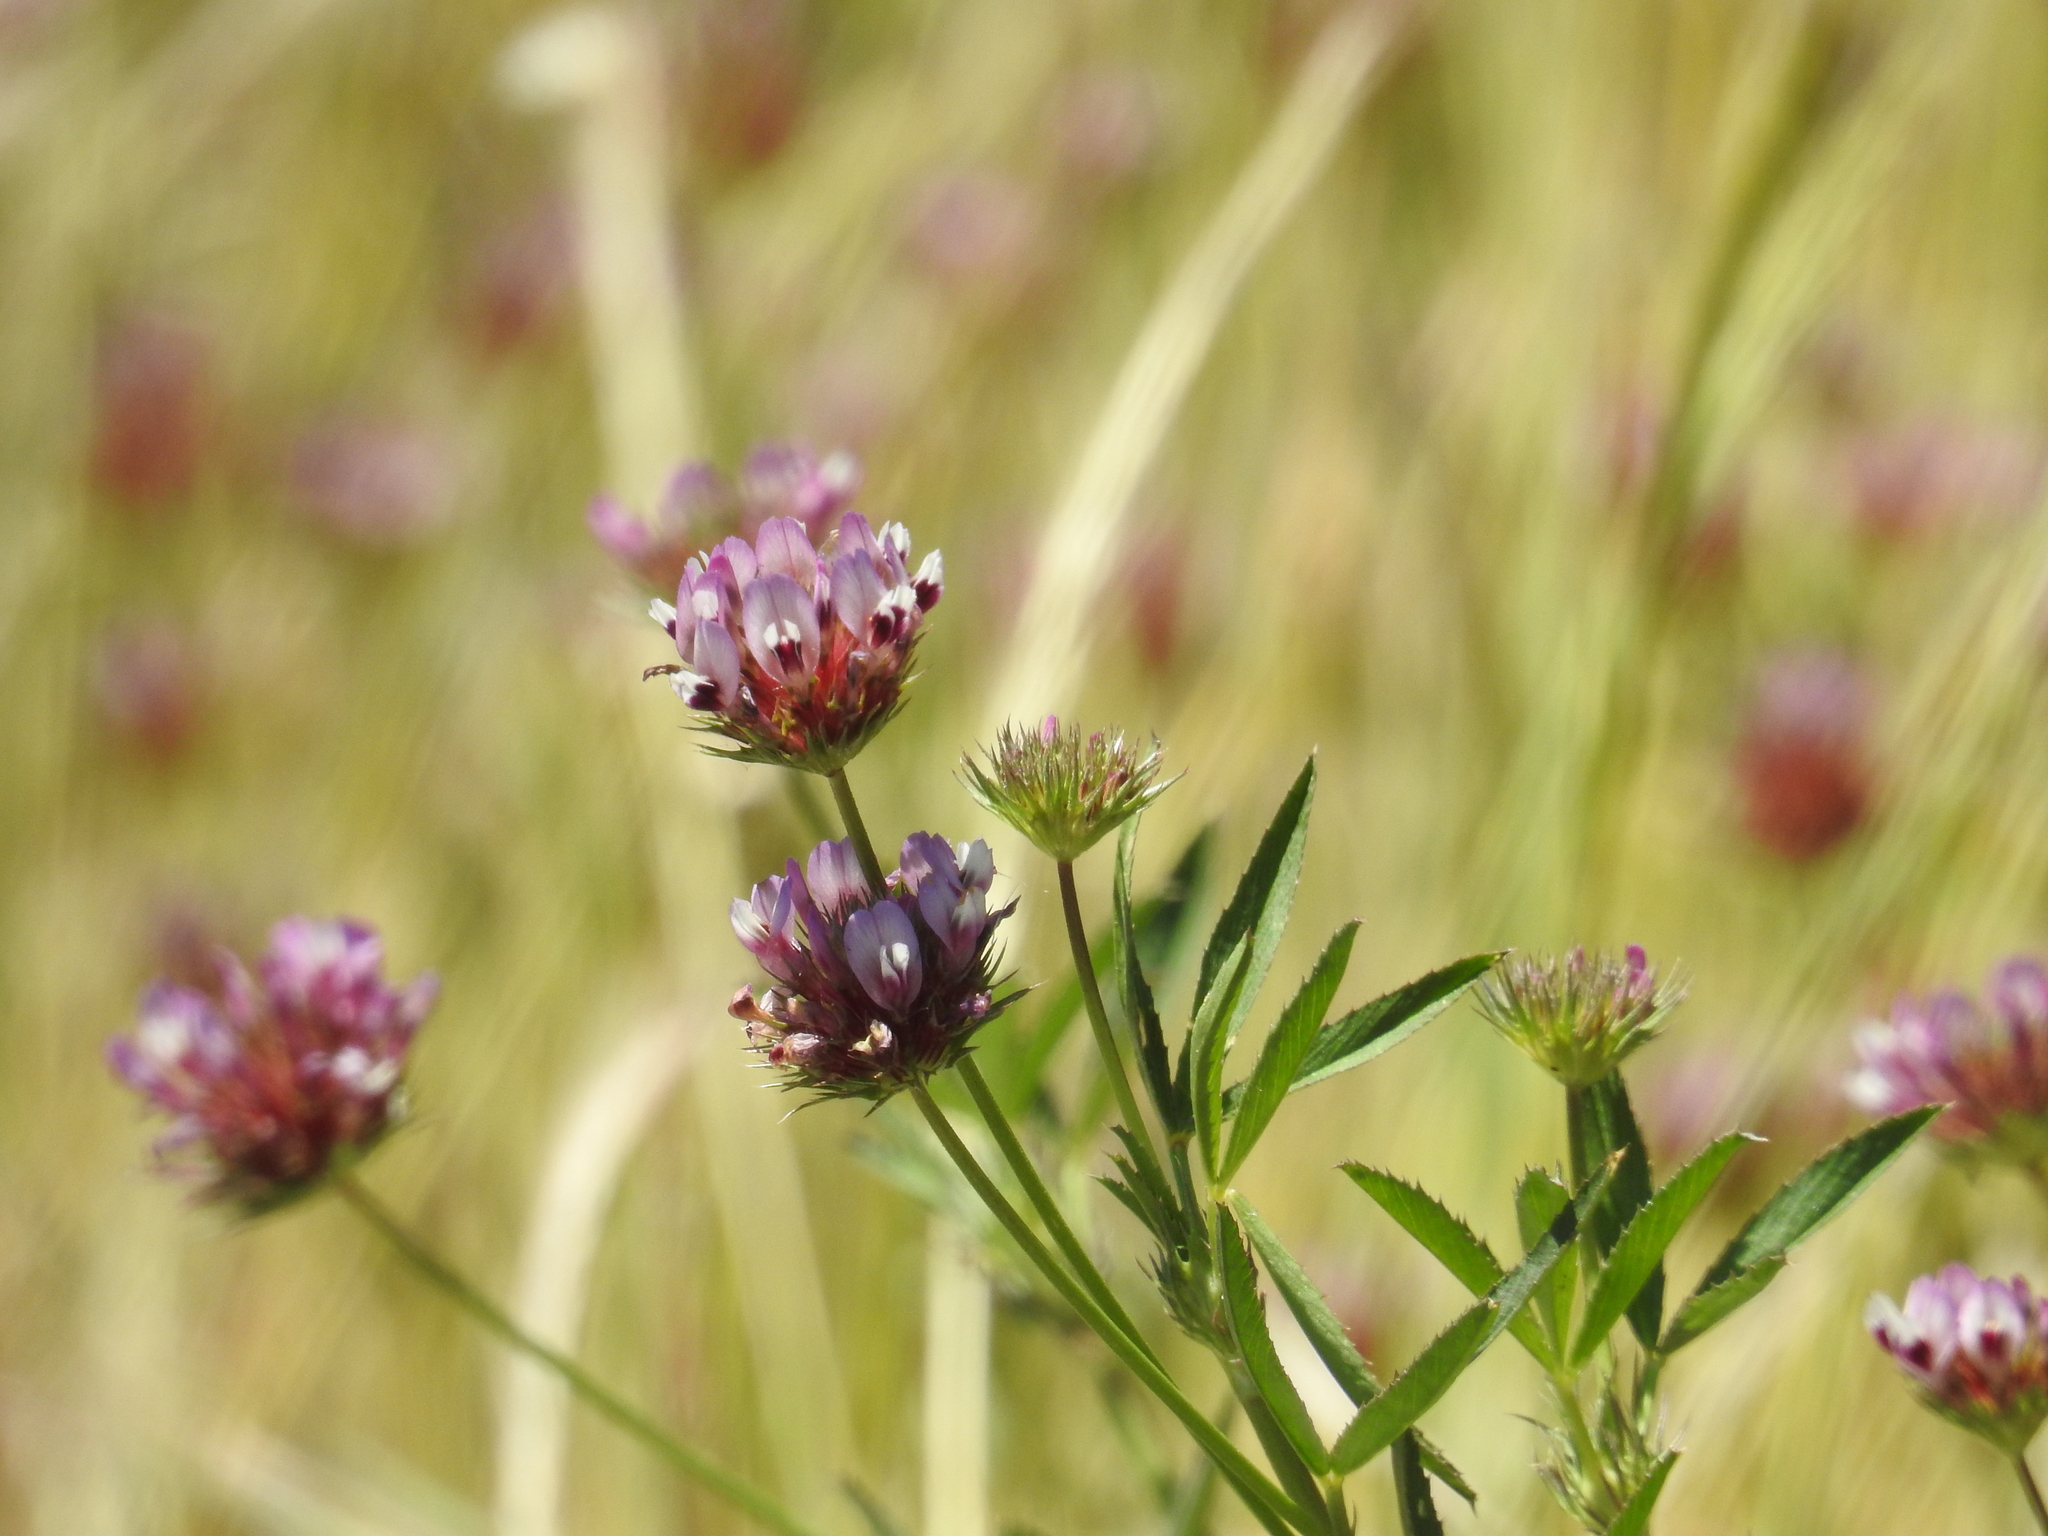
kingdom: Plantae
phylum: Tracheophyta
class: Magnoliopsida
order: Fabales
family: Fabaceae
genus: Trifolium
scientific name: Trifolium willdenovii
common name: Tomcat clover
